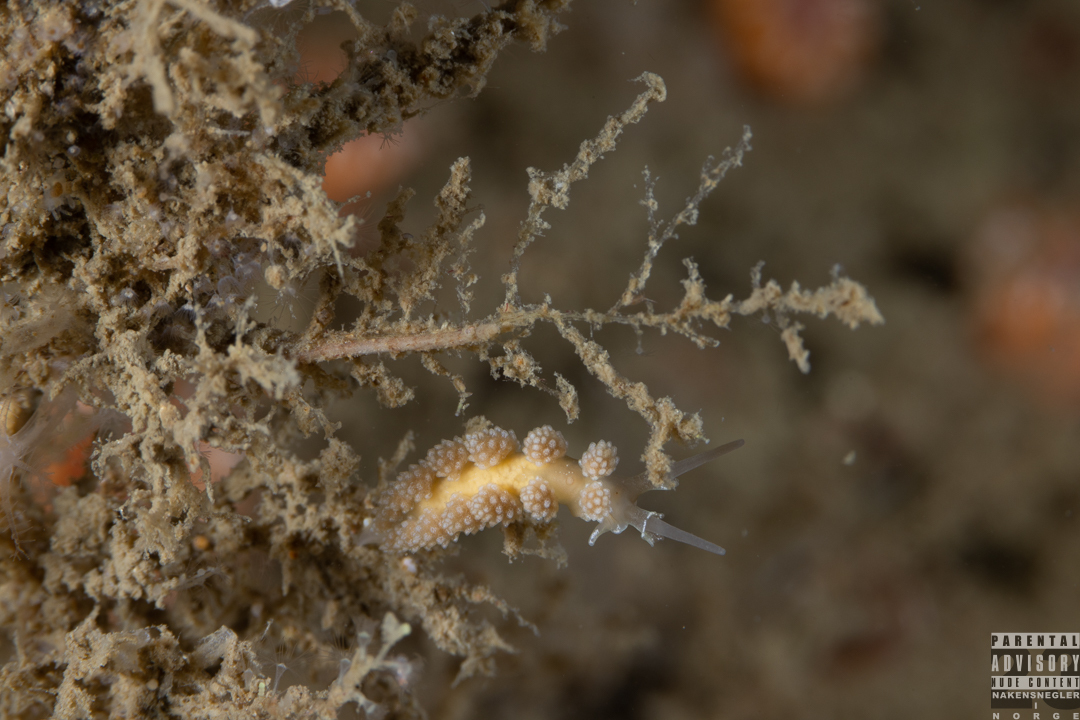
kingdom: Animalia
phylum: Mollusca
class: Gastropoda
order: Nudibranchia
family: Dotidae
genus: Doto
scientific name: Doto fragilis
